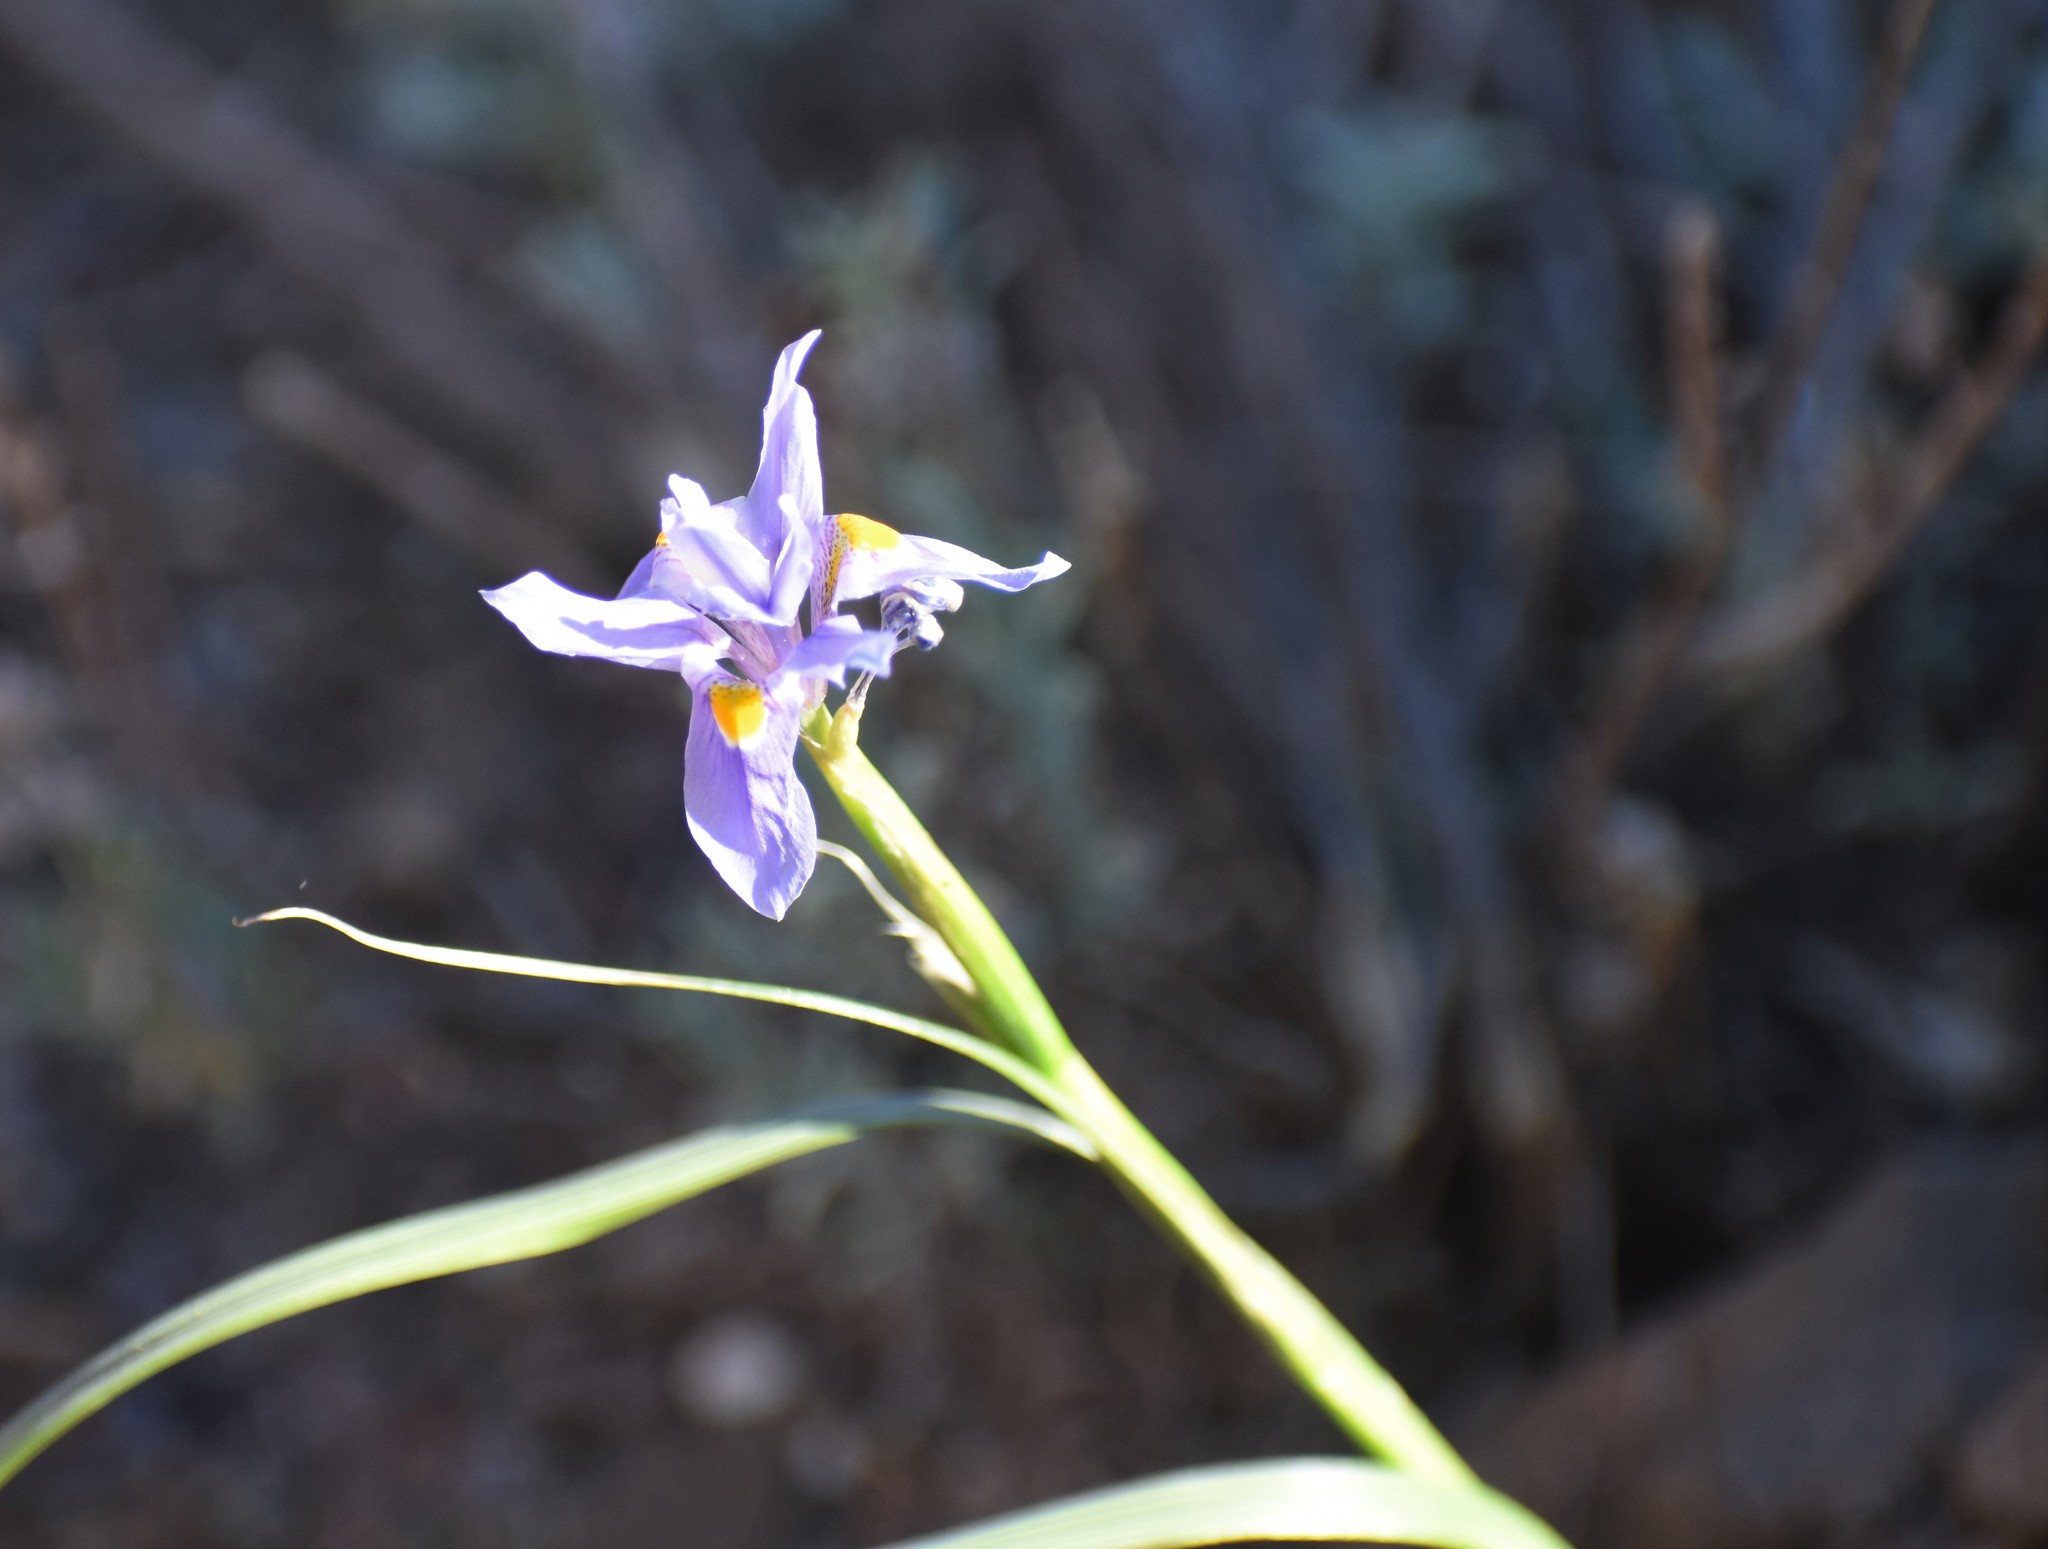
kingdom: Plantae
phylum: Tracheophyta
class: Liliopsida
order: Asparagales
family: Iridaceae
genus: Moraea
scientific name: Moraea polystachya
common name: Blue-tulip
